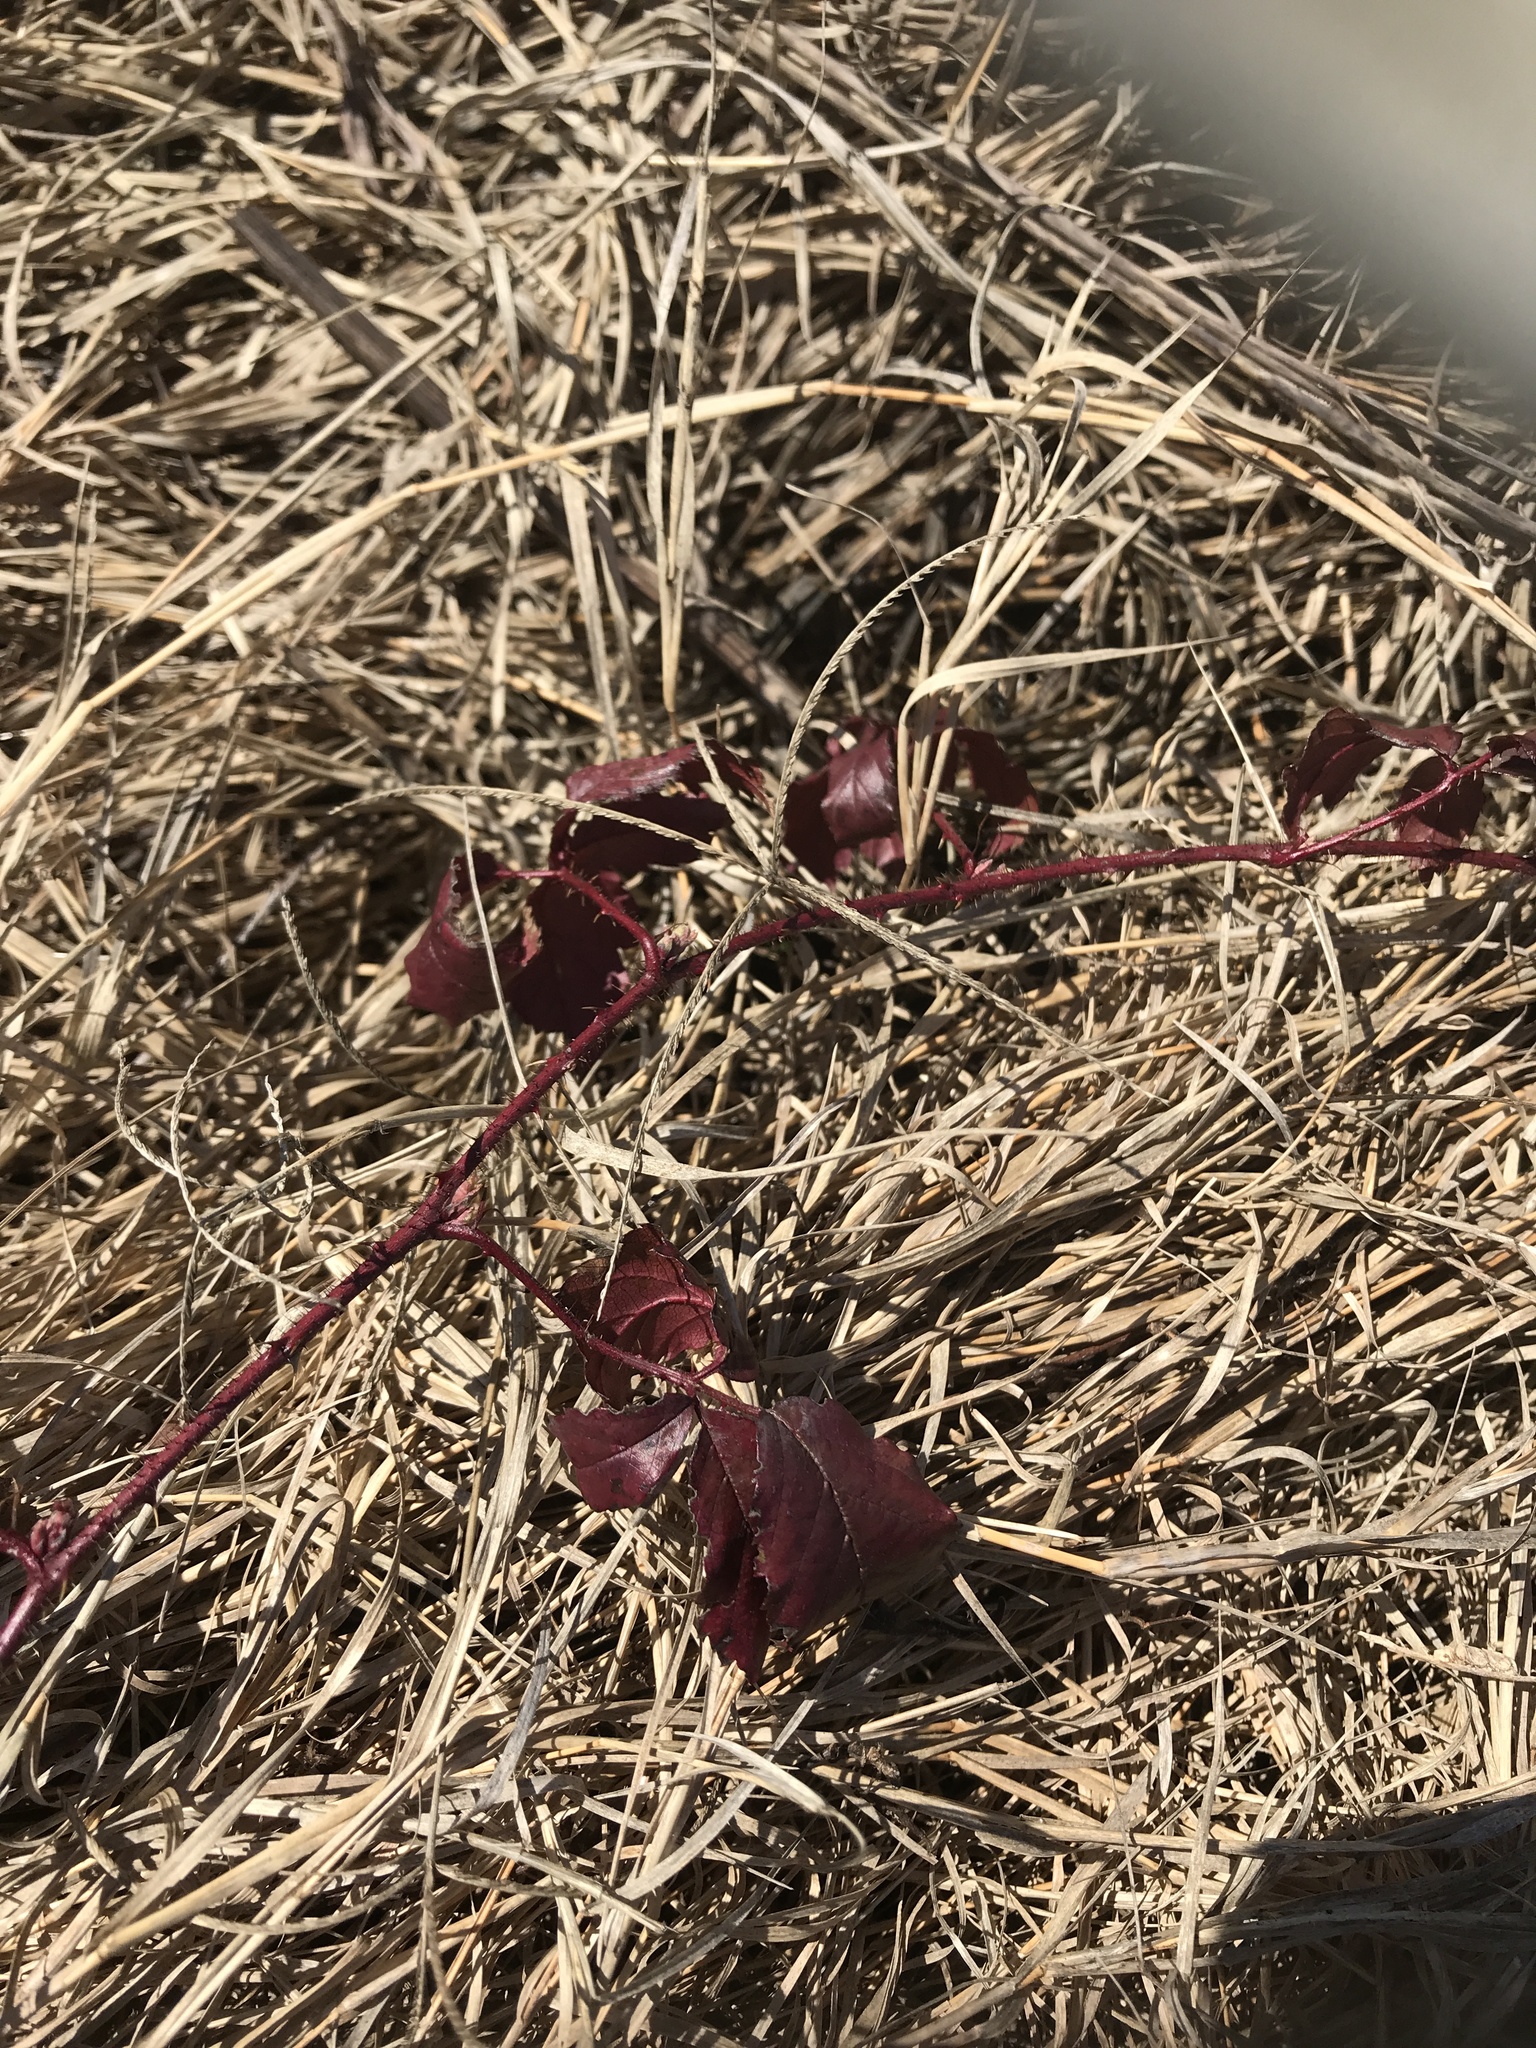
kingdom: Plantae
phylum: Tracheophyta
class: Magnoliopsida
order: Rosales
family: Rosaceae
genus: Rubus
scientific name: Rubus trivialis
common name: Southern dewberry
